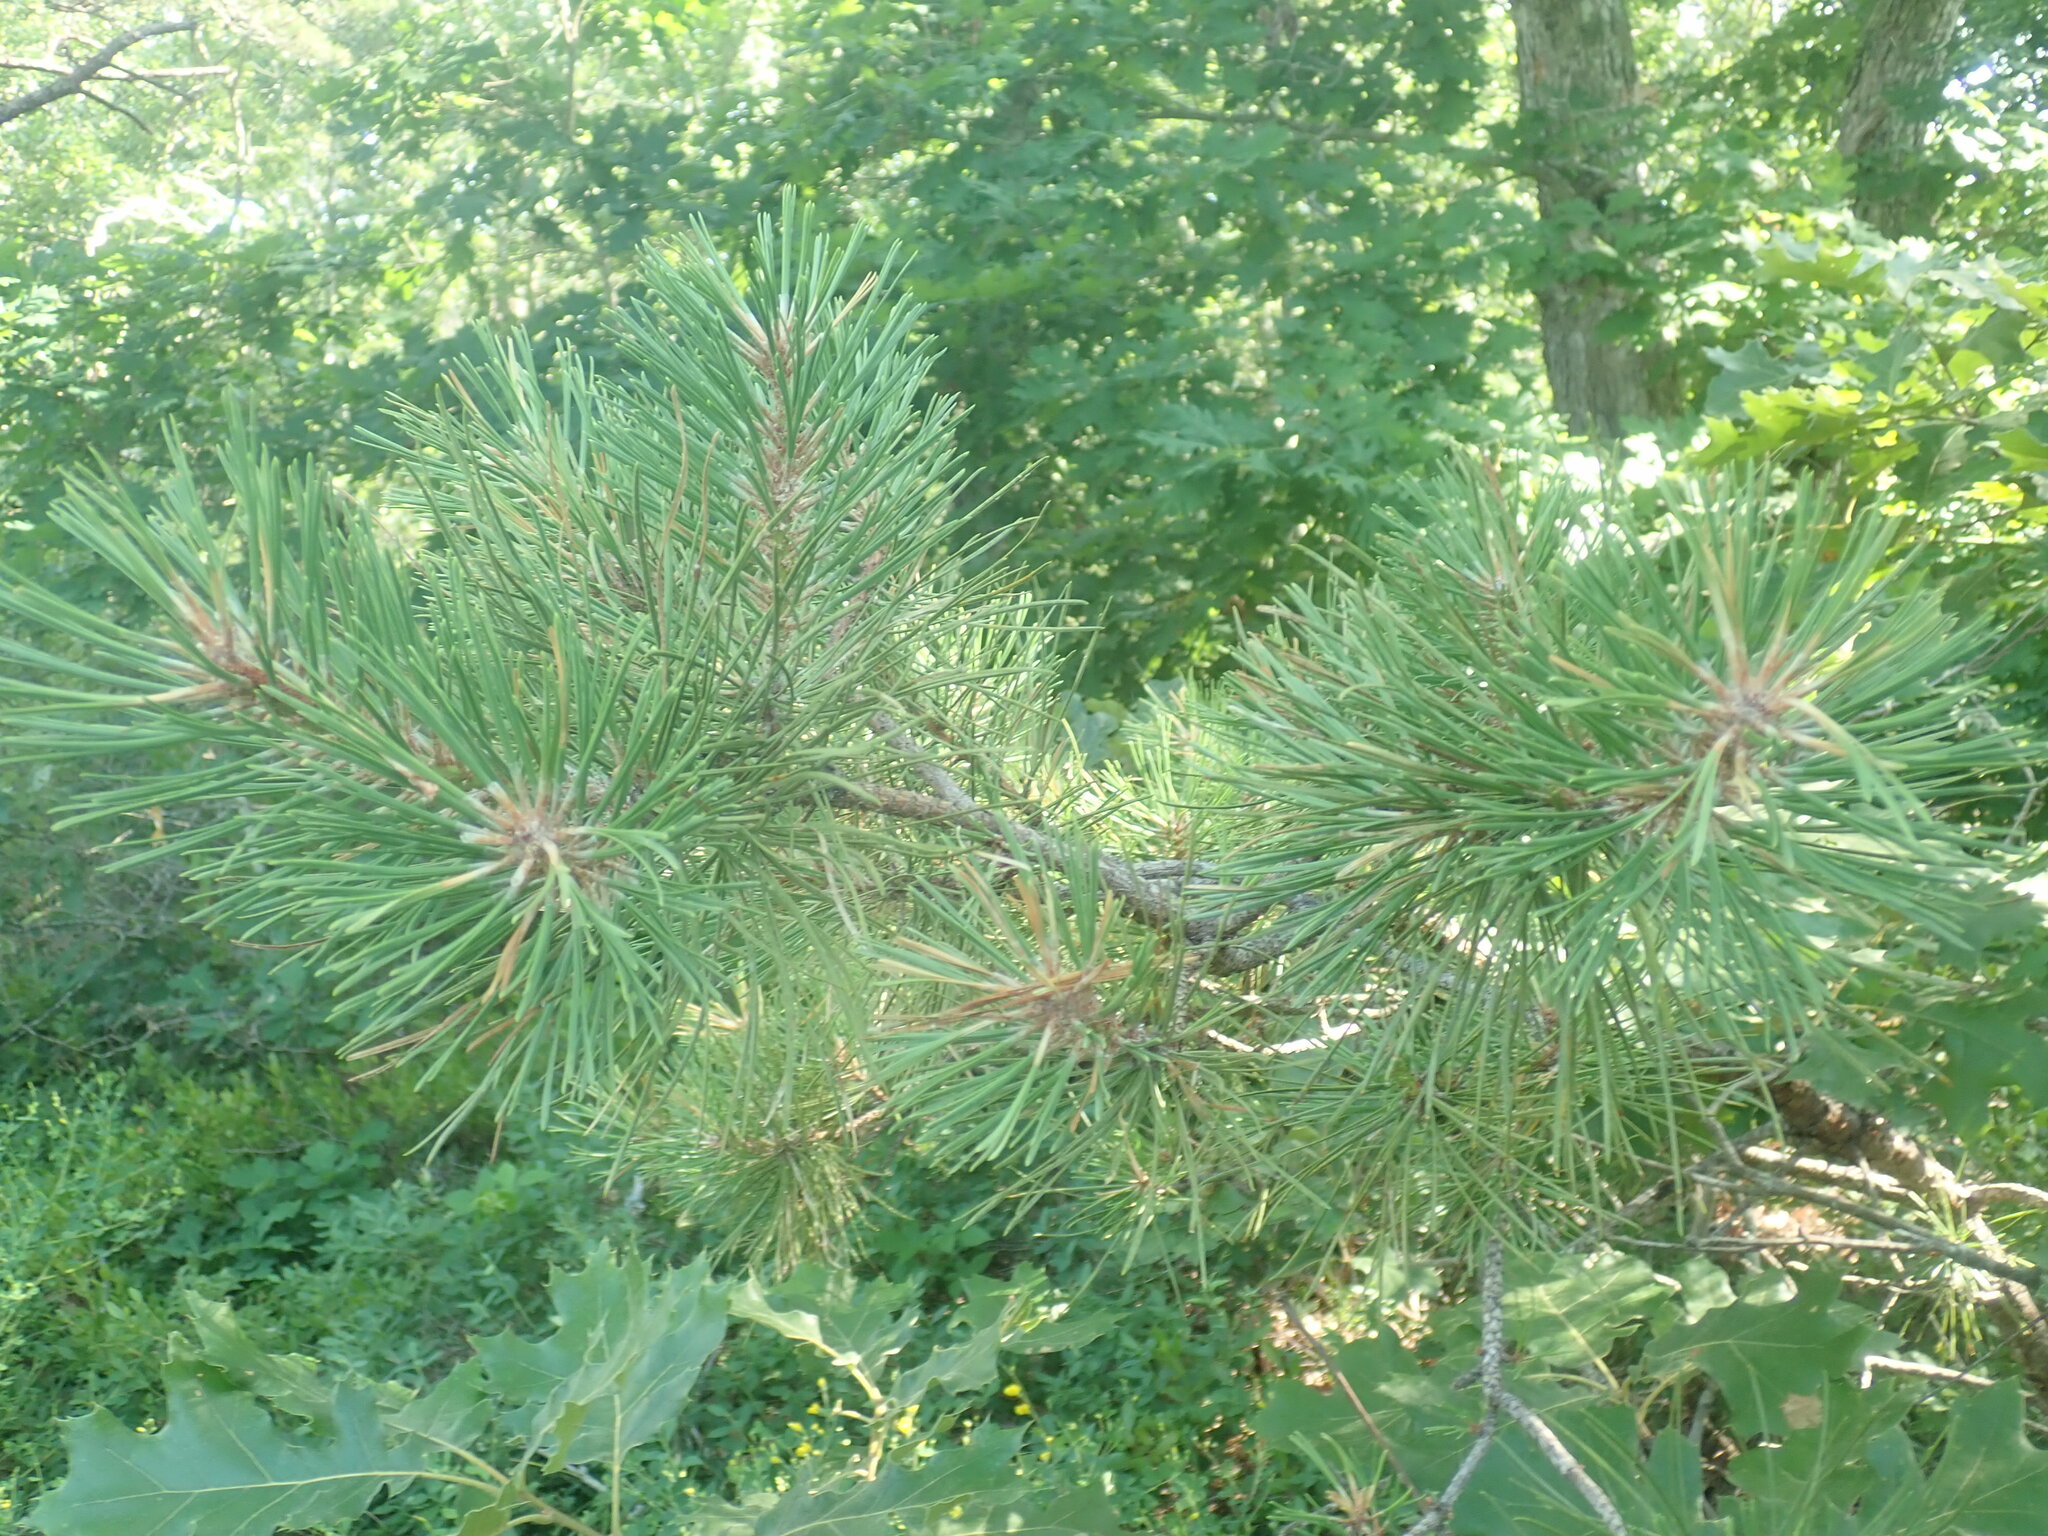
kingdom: Plantae
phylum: Tracheophyta
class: Pinopsida
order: Pinales
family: Pinaceae
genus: Pinus
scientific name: Pinus rigida
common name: Pitch pine
